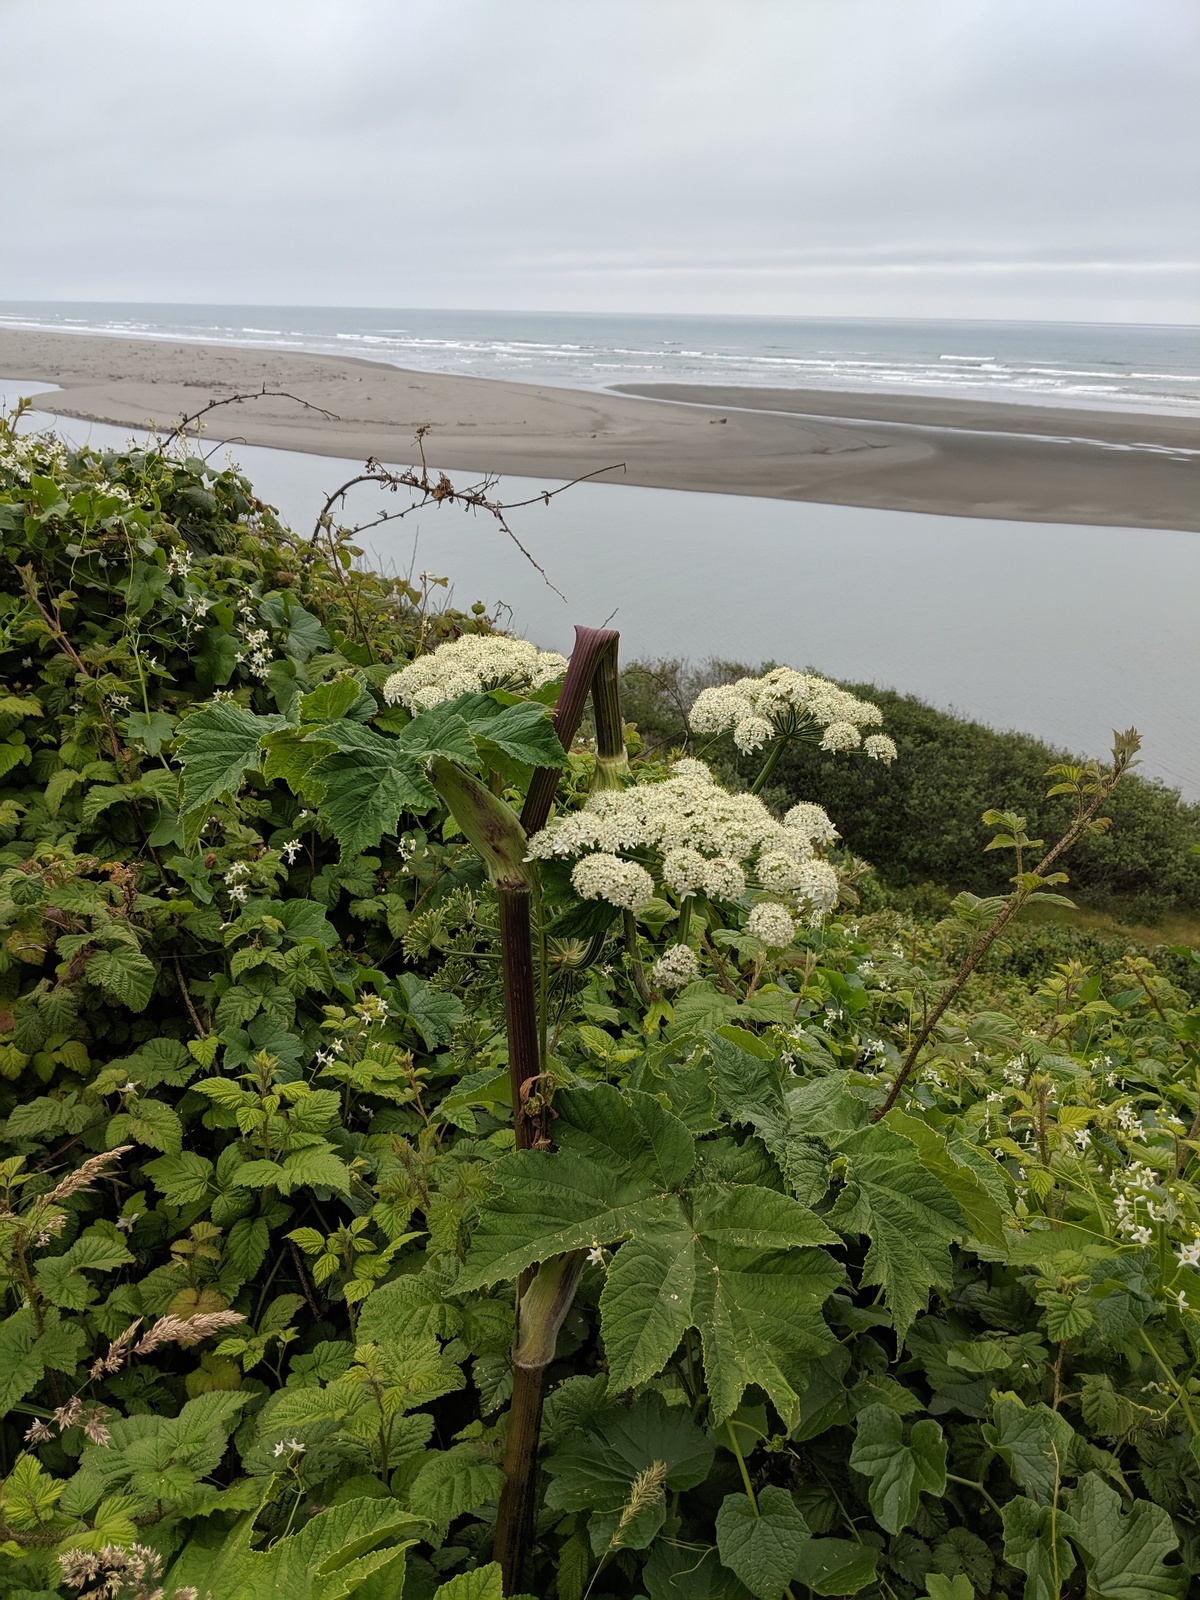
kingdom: Plantae
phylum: Tracheophyta
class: Magnoliopsida
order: Apiales
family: Apiaceae
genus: Heracleum
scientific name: Heracleum maximum
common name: American cow parsnip
